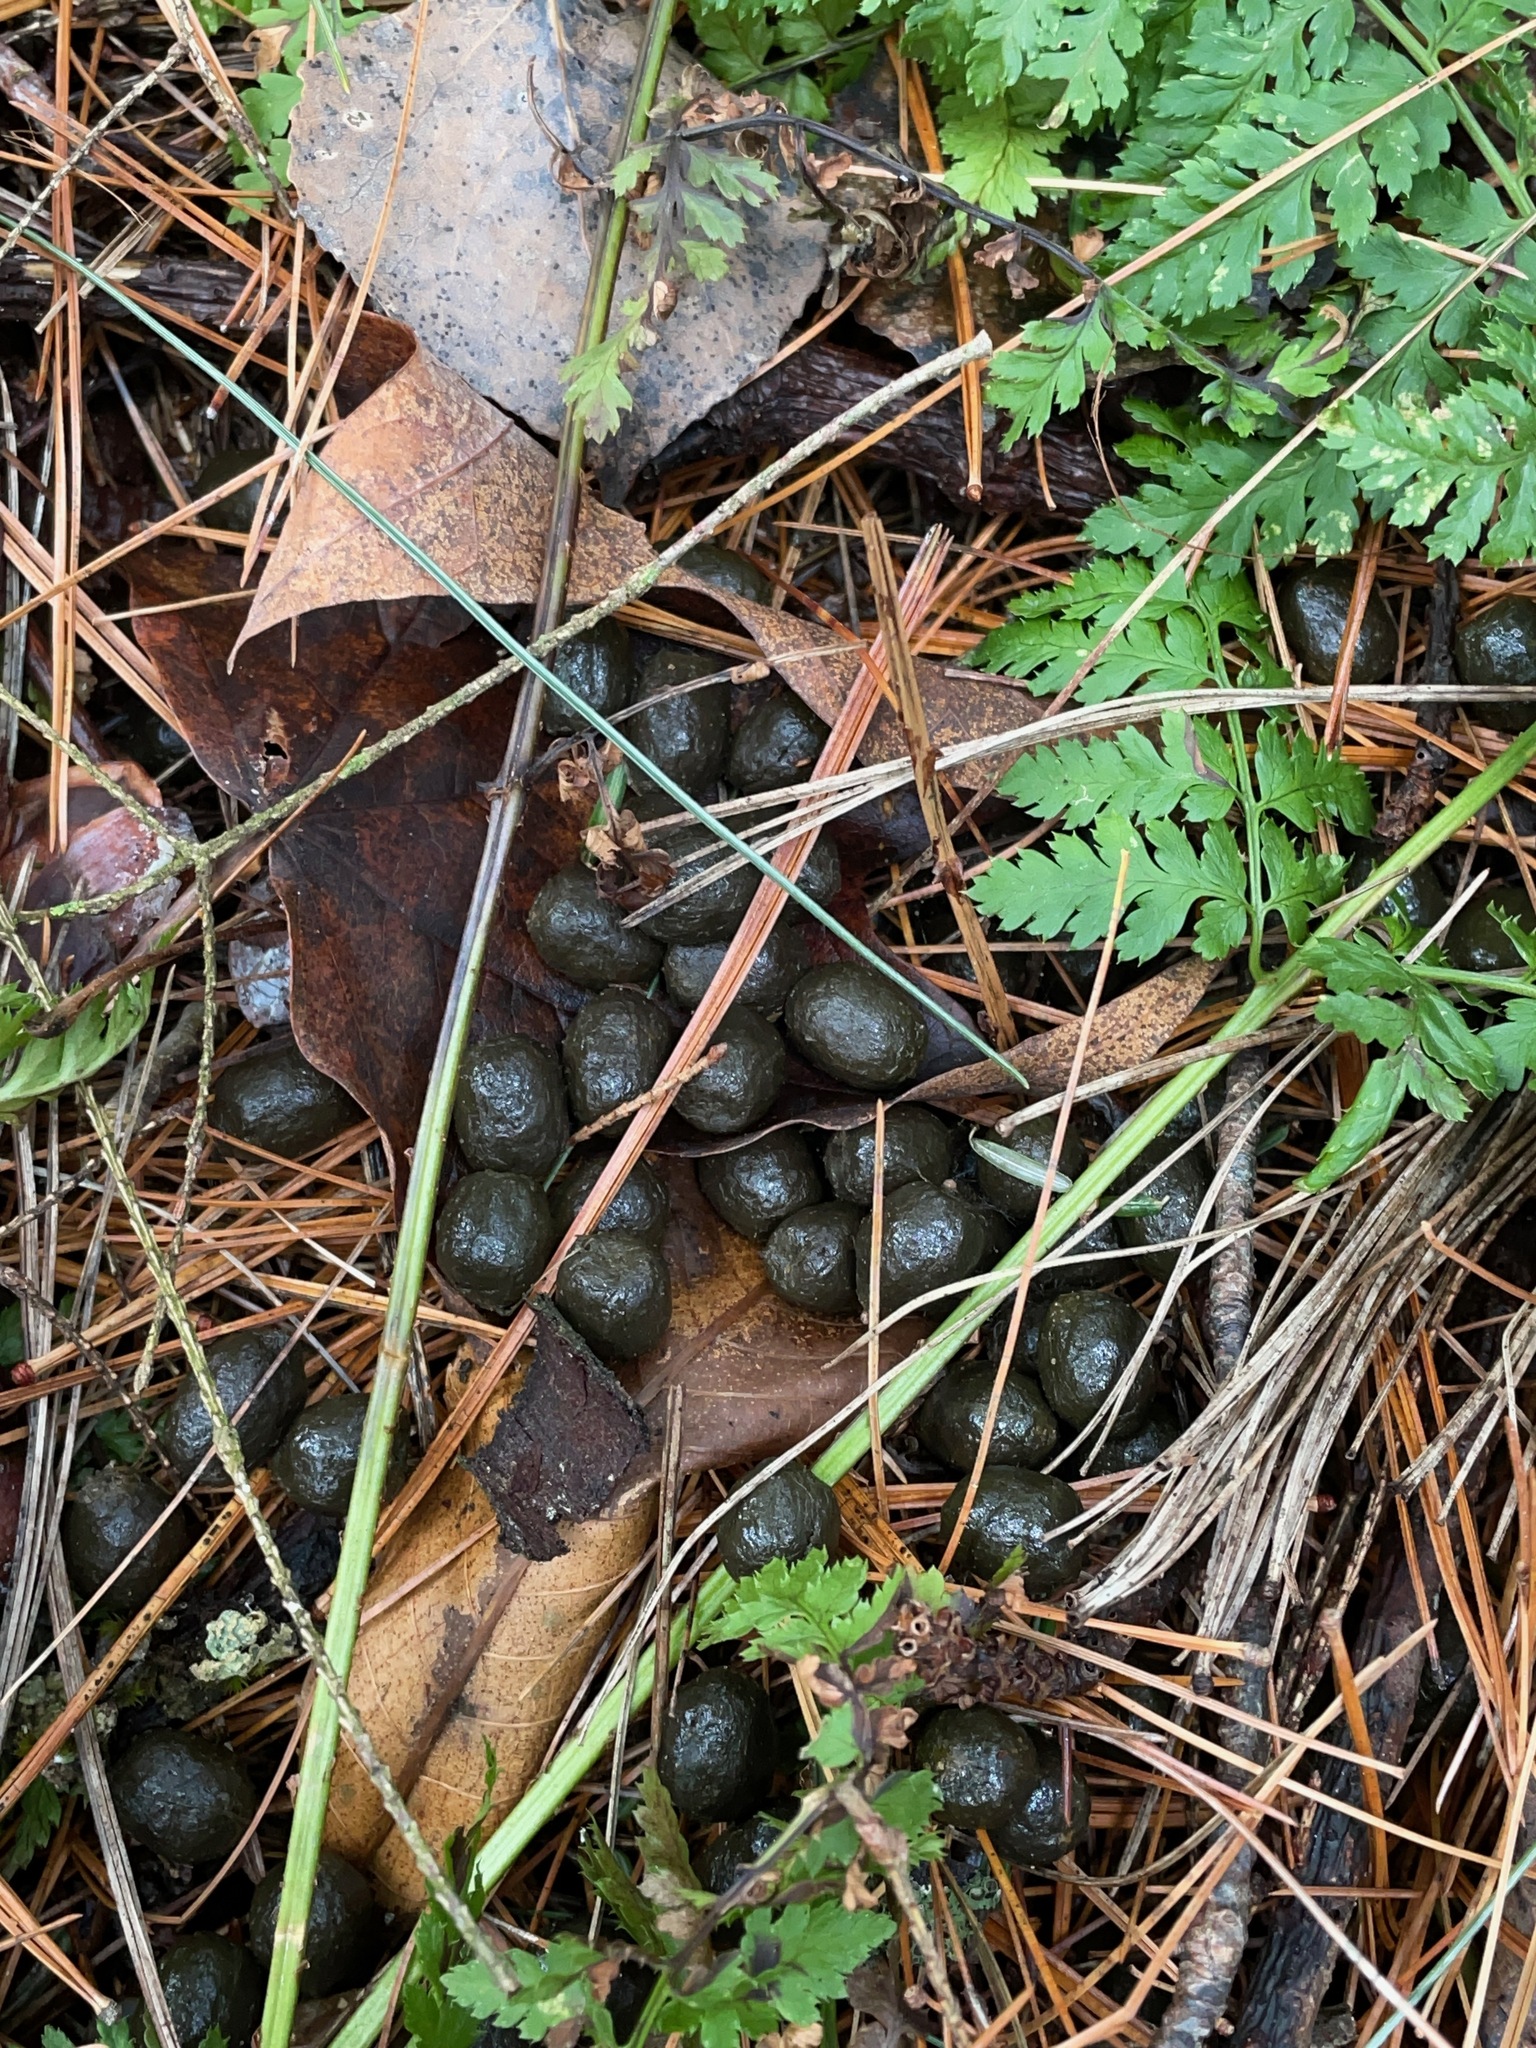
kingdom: Animalia
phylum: Chordata
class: Mammalia
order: Artiodactyla
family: Cervidae
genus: Odocoileus
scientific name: Odocoileus virginianus
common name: White-tailed deer
